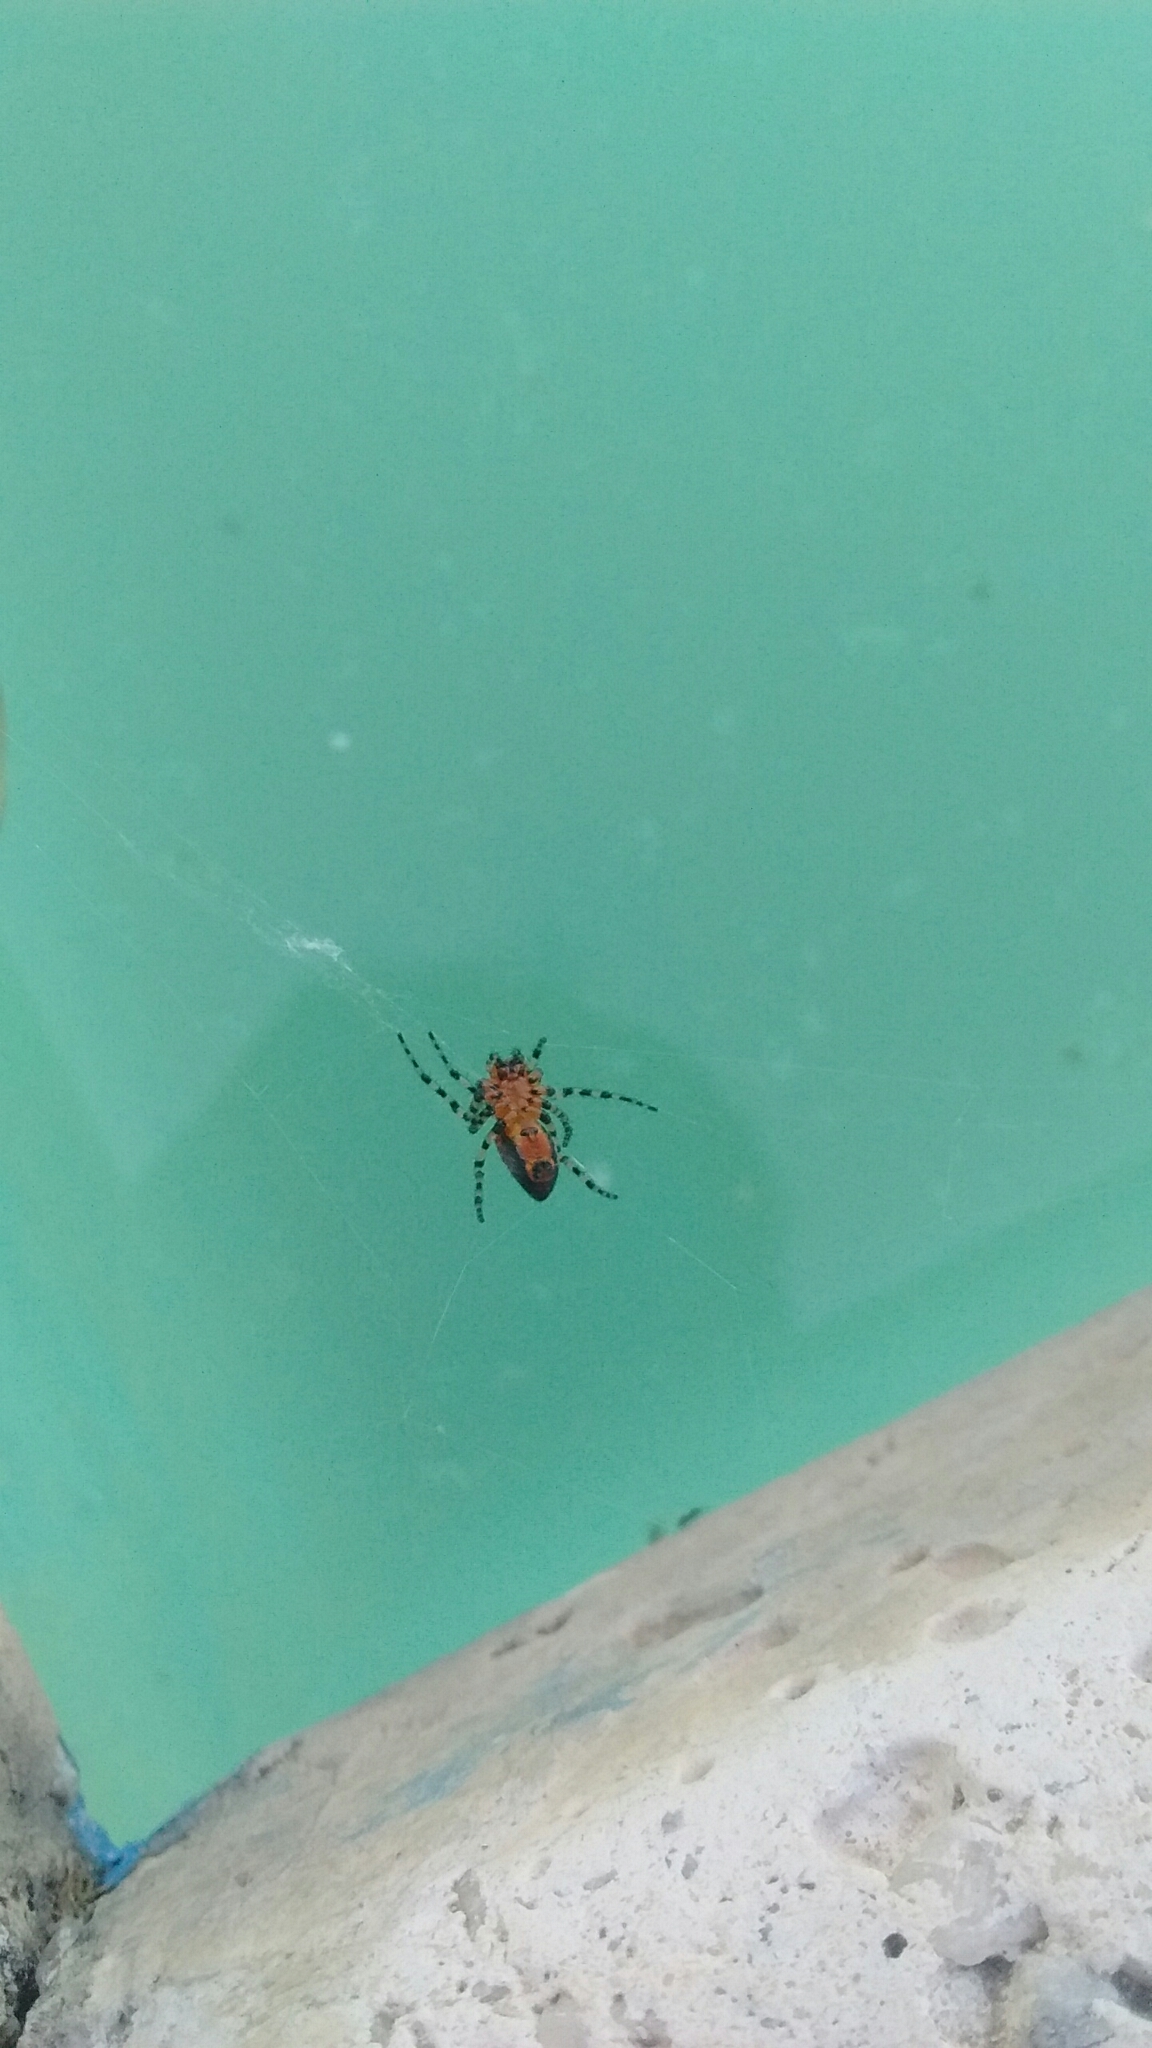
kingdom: Animalia
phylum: Arthropoda
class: Arachnida
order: Araneae
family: Araneidae
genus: Alpaida
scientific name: Alpaida gallardoi
